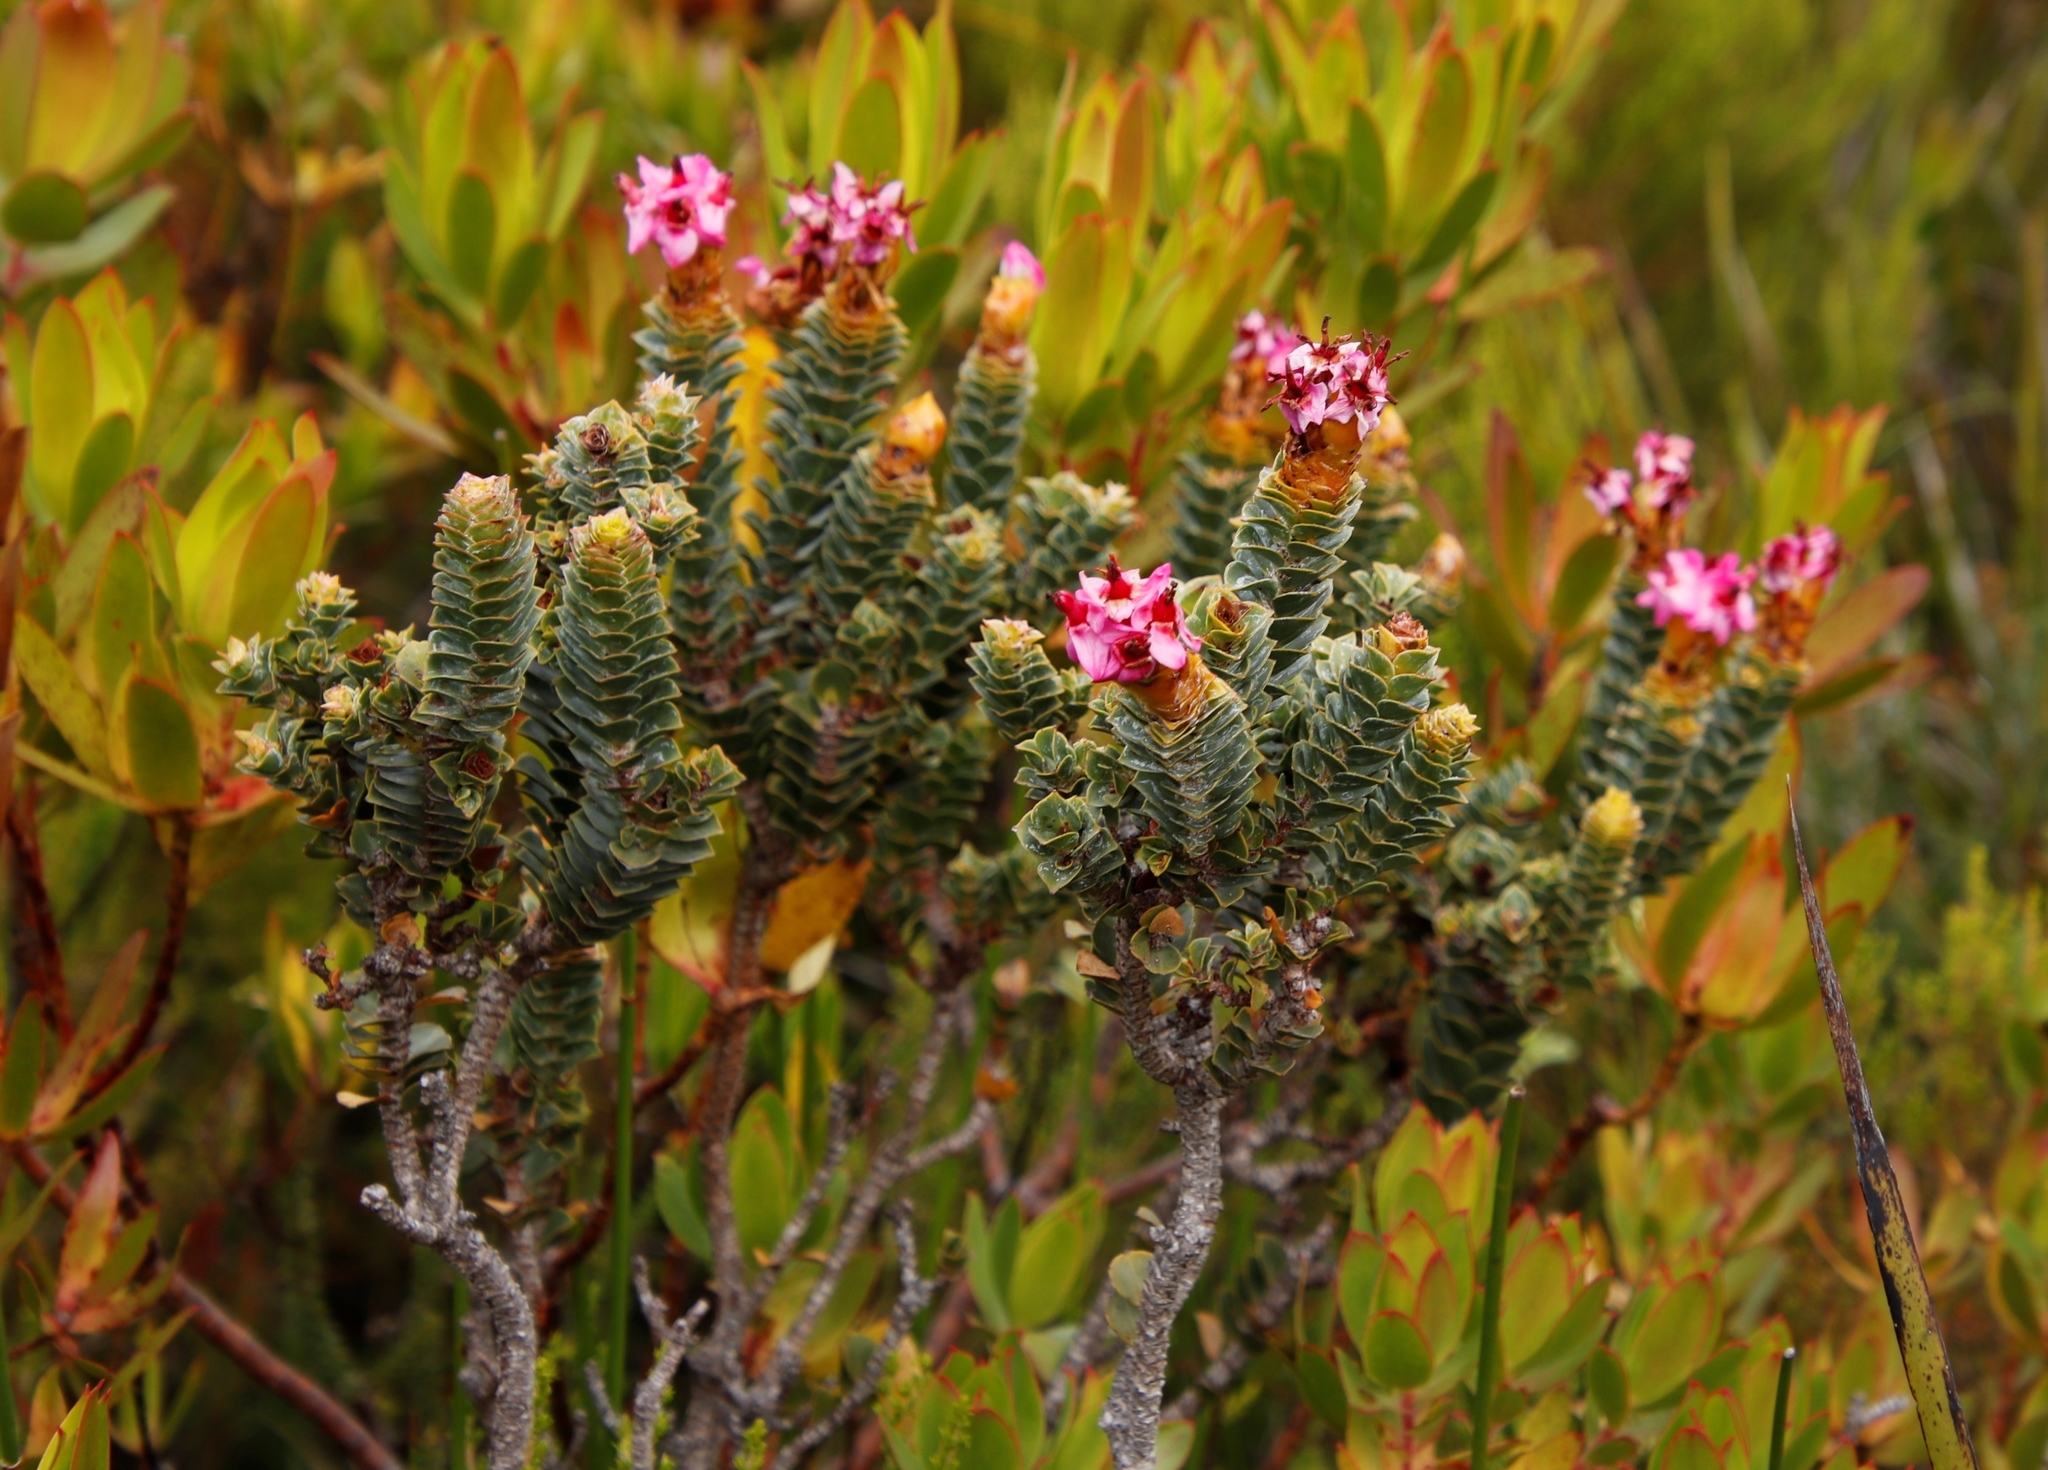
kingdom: Plantae
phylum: Tracheophyta
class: Magnoliopsida
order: Myrtales
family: Penaeaceae
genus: Saltera
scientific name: Saltera sarcocolla
